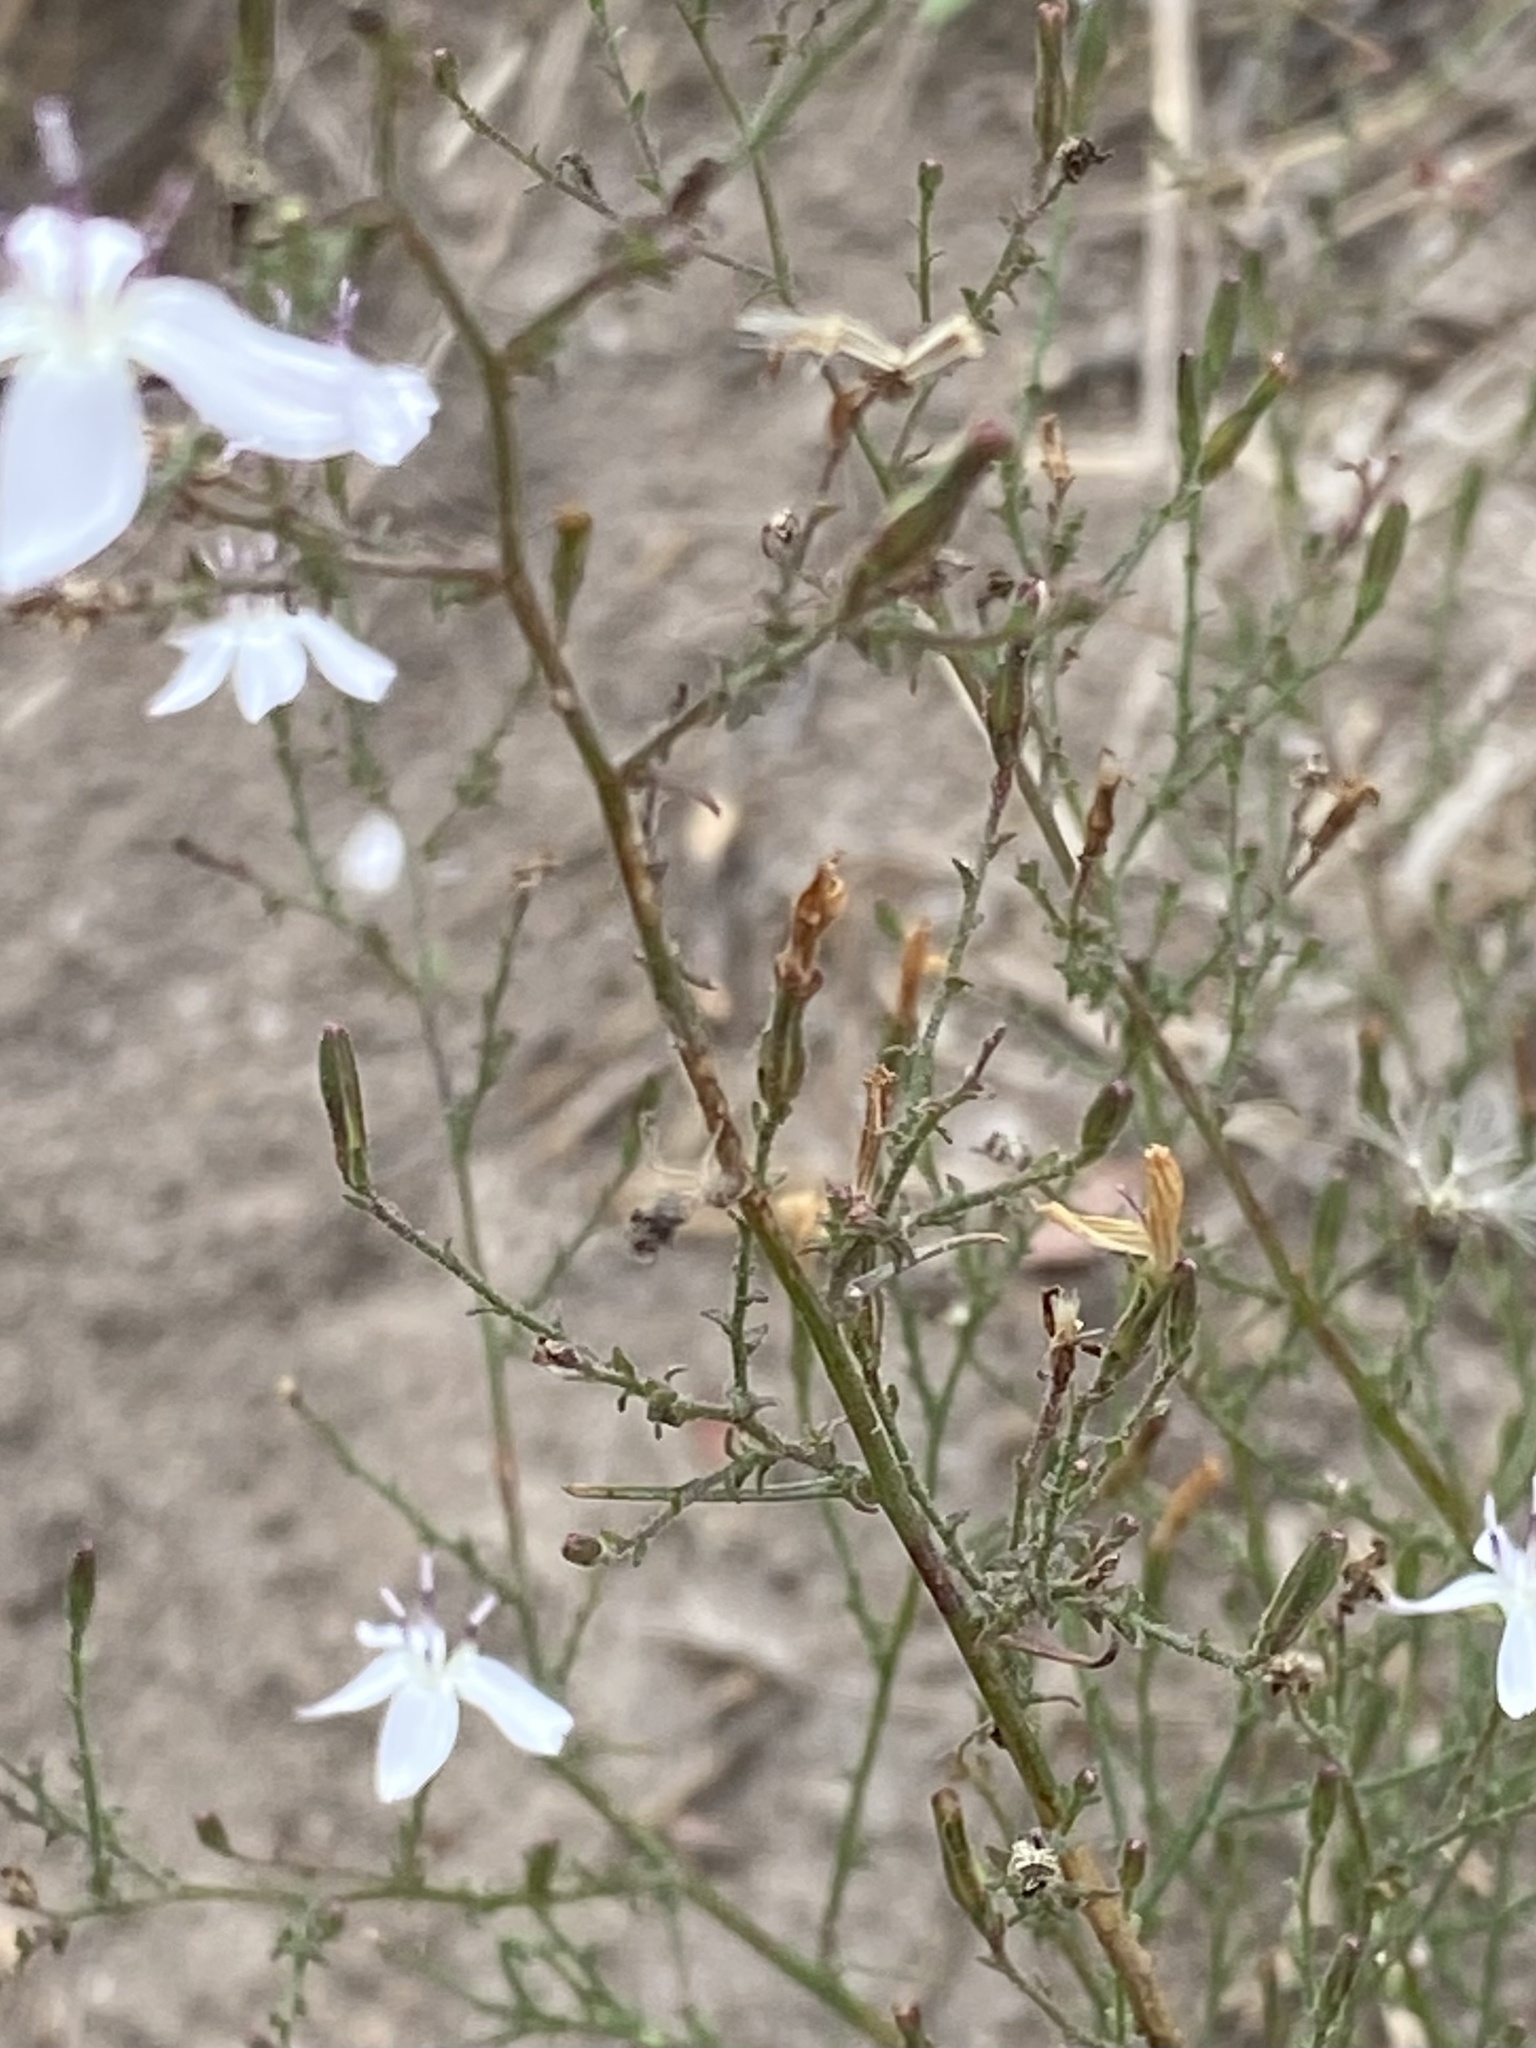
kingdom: Plantae
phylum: Tracheophyta
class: Magnoliopsida
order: Asterales
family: Asteraceae
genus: Stephanomeria
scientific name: Stephanomeria exigua
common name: Small wirelettuce
